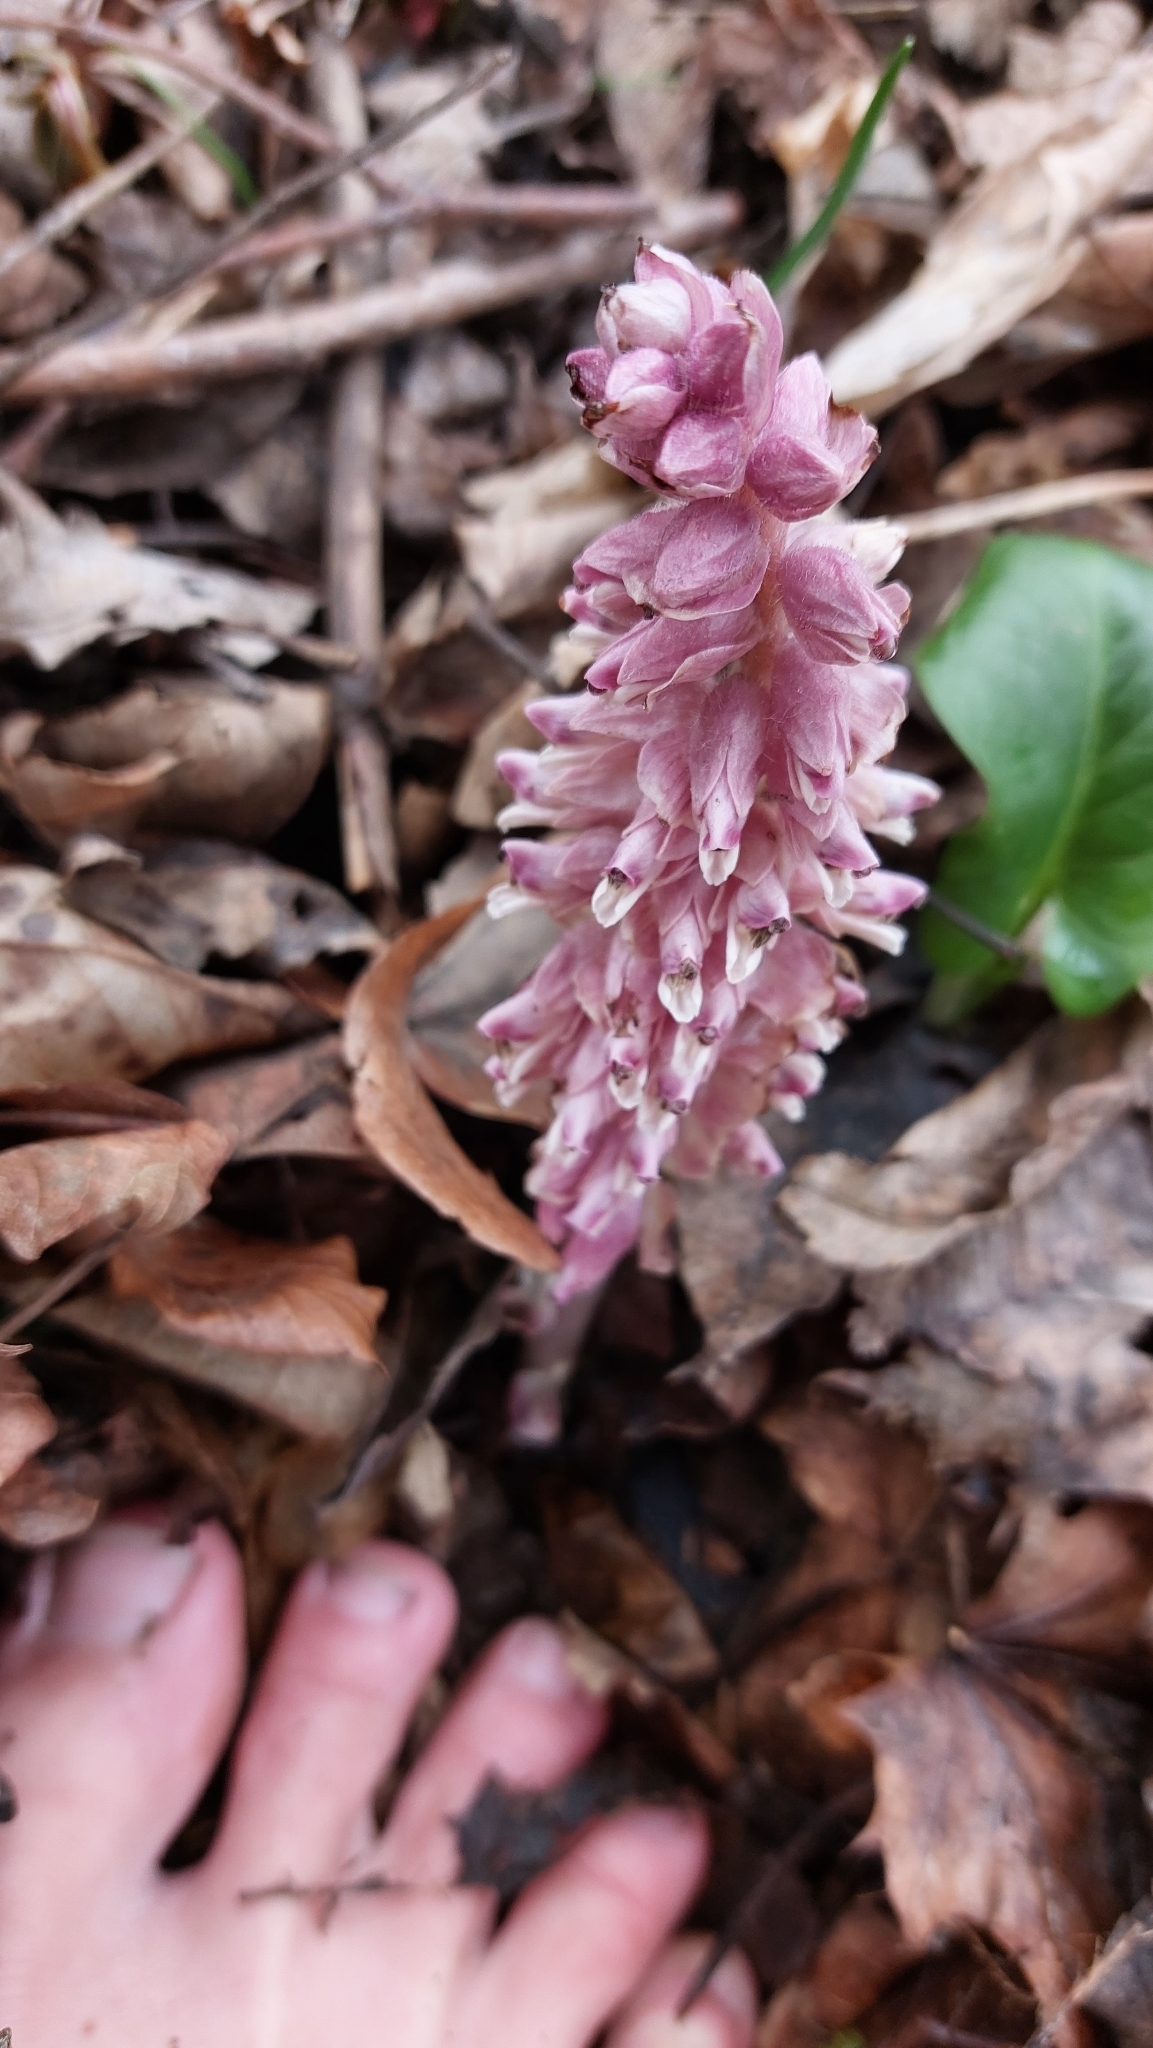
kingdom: Plantae
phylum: Tracheophyta
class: Magnoliopsida
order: Lamiales
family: Orobanchaceae
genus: Lathraea
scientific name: Lathraea squamaria
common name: Toothwort
